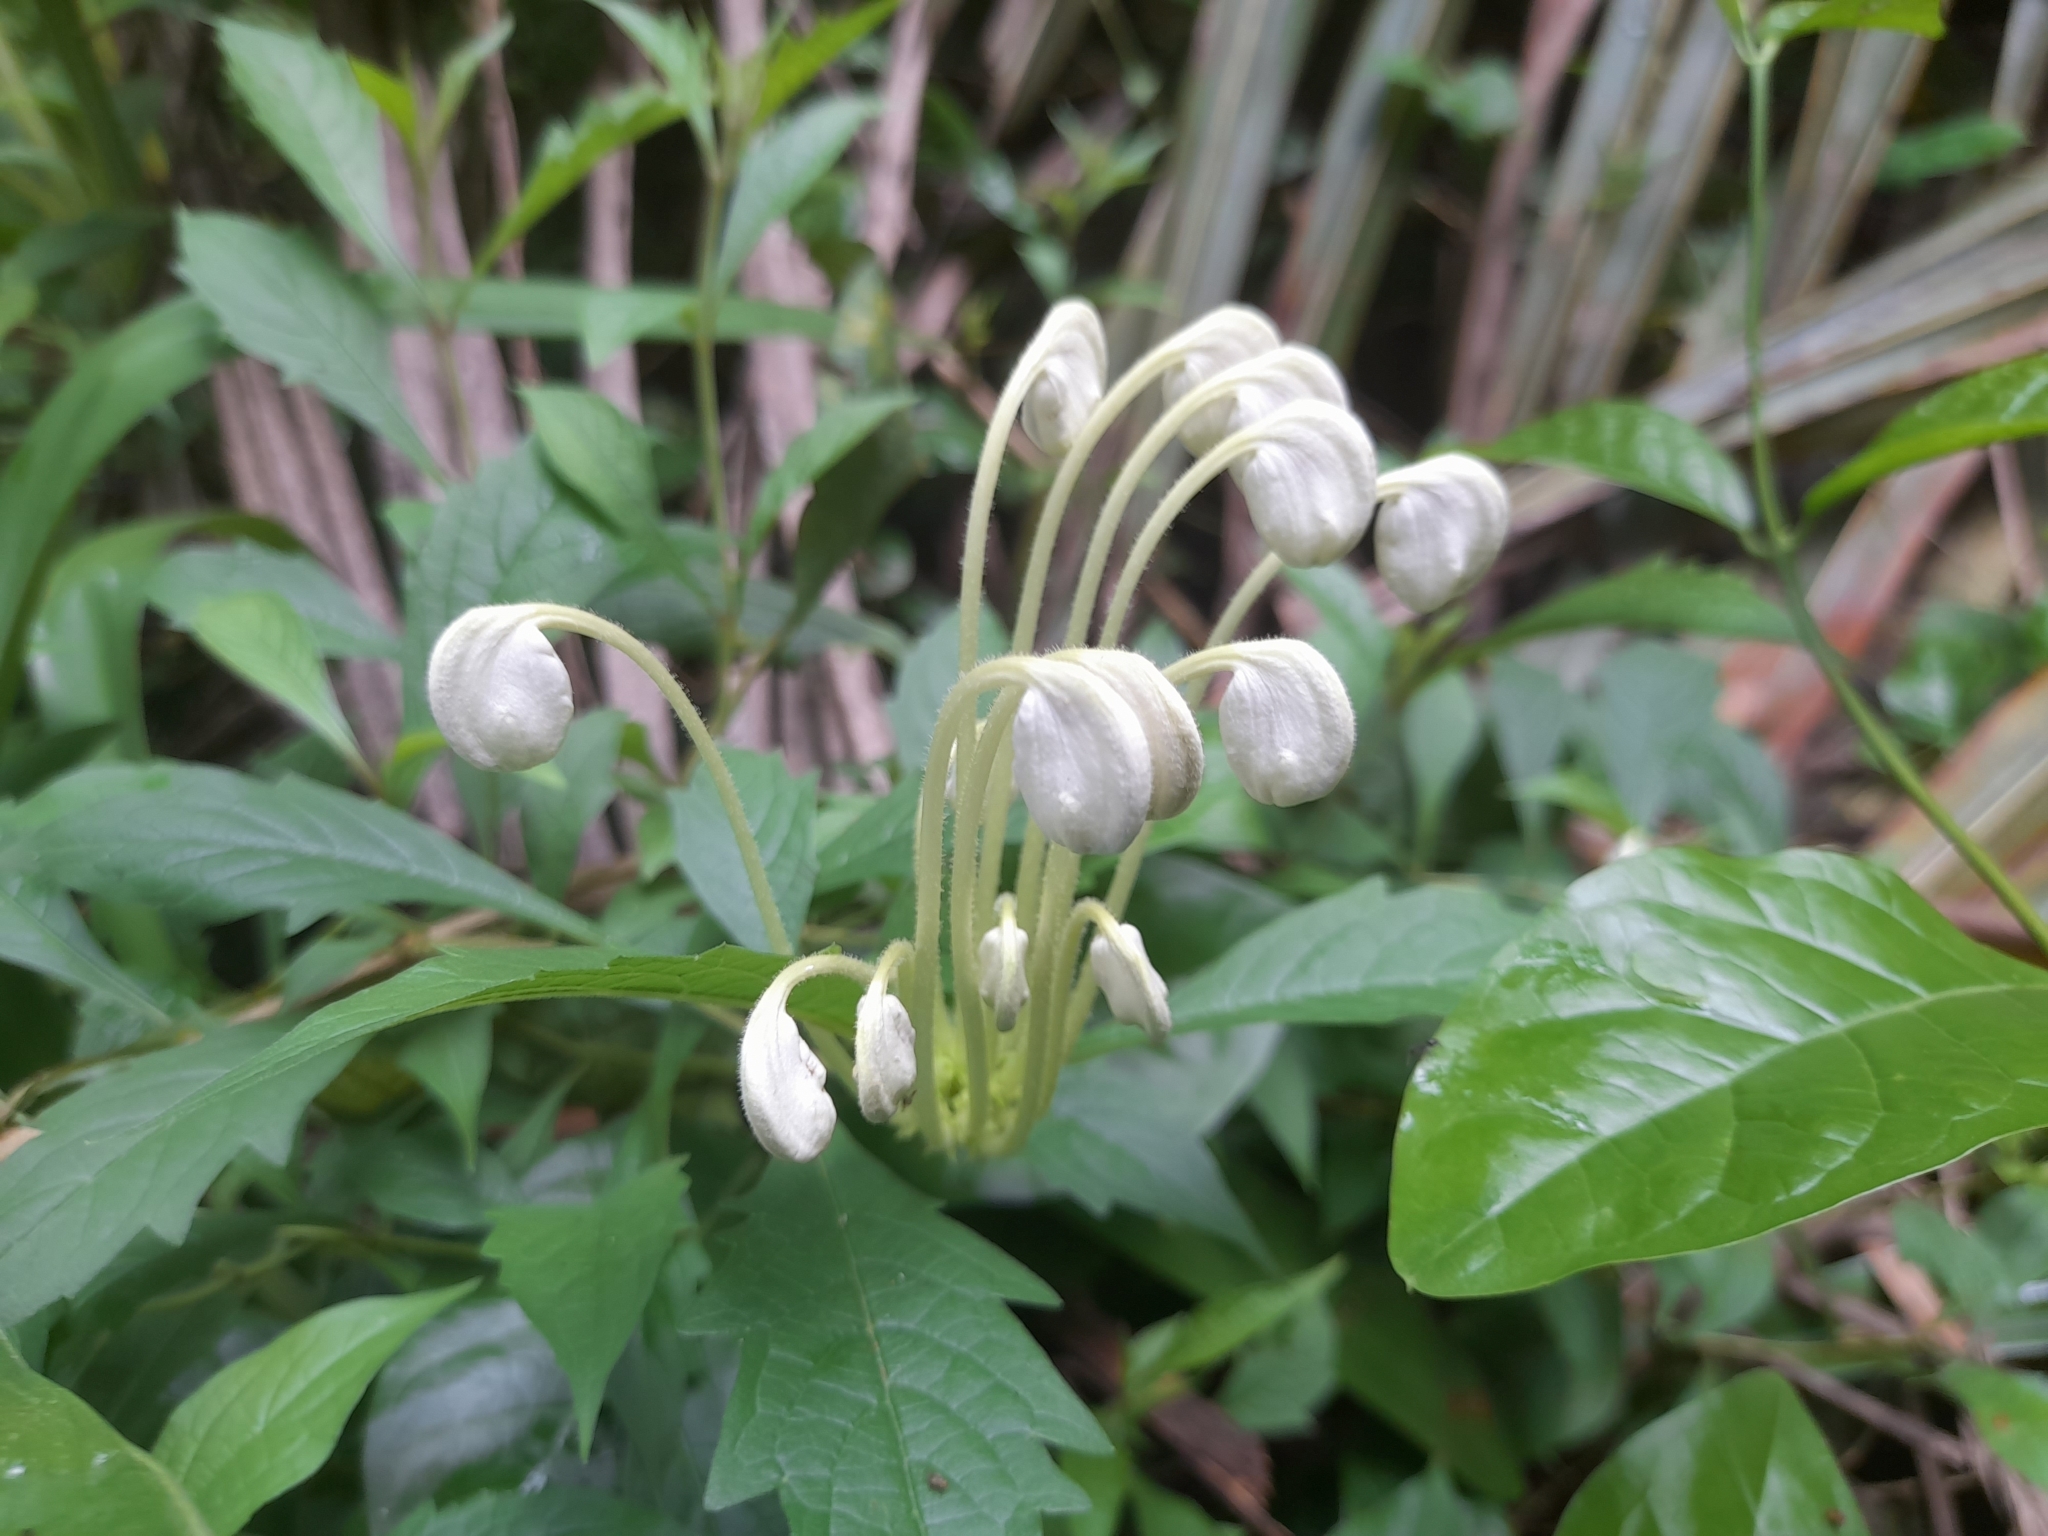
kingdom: Plantae
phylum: Tracheophyta
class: Magnoliopsida
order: Lamiales
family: Lamiaceae
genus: Rotheca
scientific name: Rotheca microphylla
